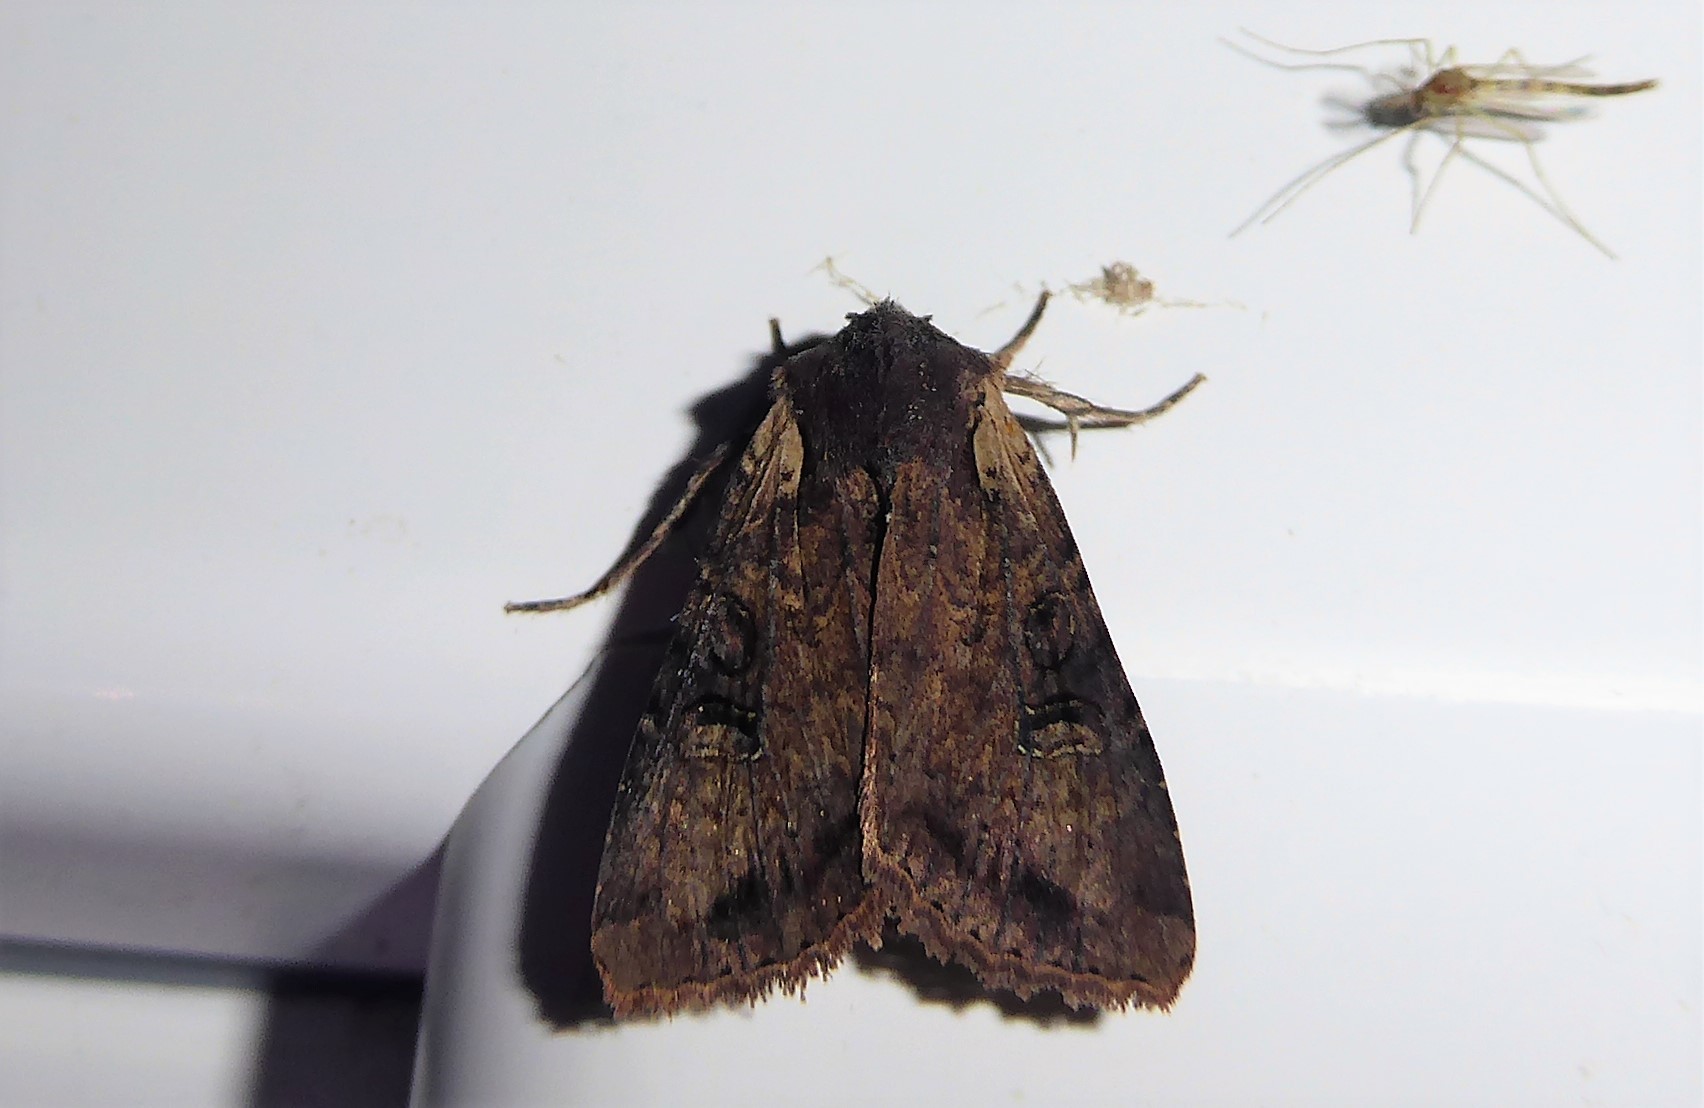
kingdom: Animalia
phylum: Arthropoda
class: Insecta
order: Lepidoptera
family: Noctuidae
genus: Ichneutica
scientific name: Ichneutica omoplaca
